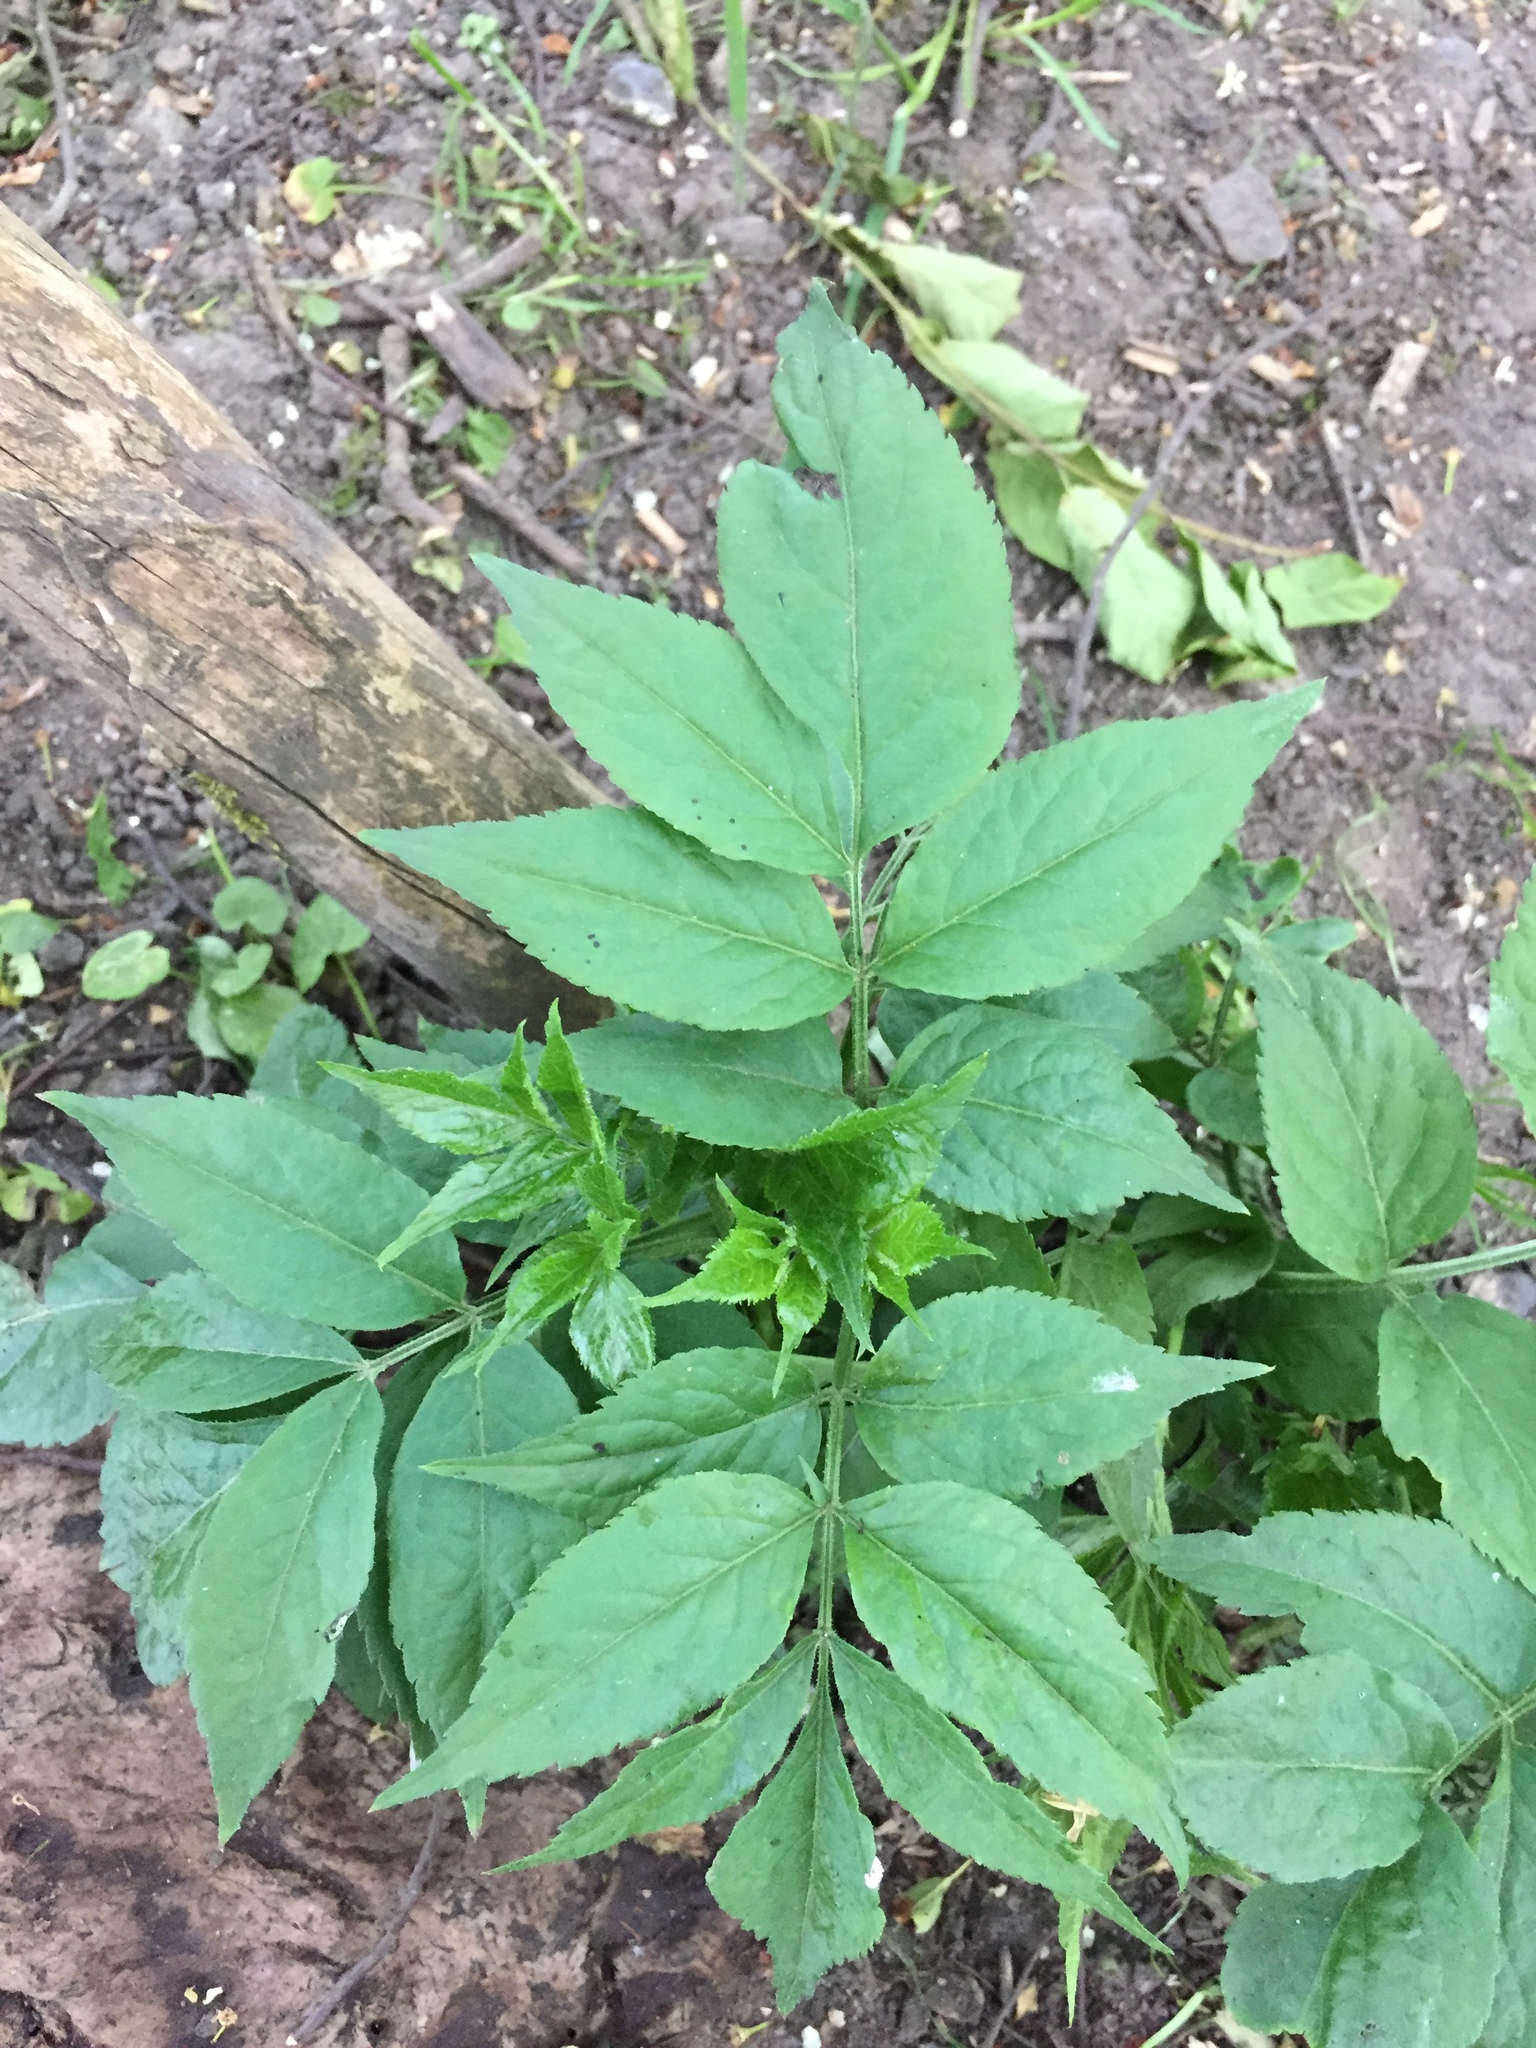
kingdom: Plantae
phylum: Tracheophyta
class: Magnoliopsida
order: Dipsacales
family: Viburnaceae
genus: Sambucus
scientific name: Sambucus nigra
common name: Elder
